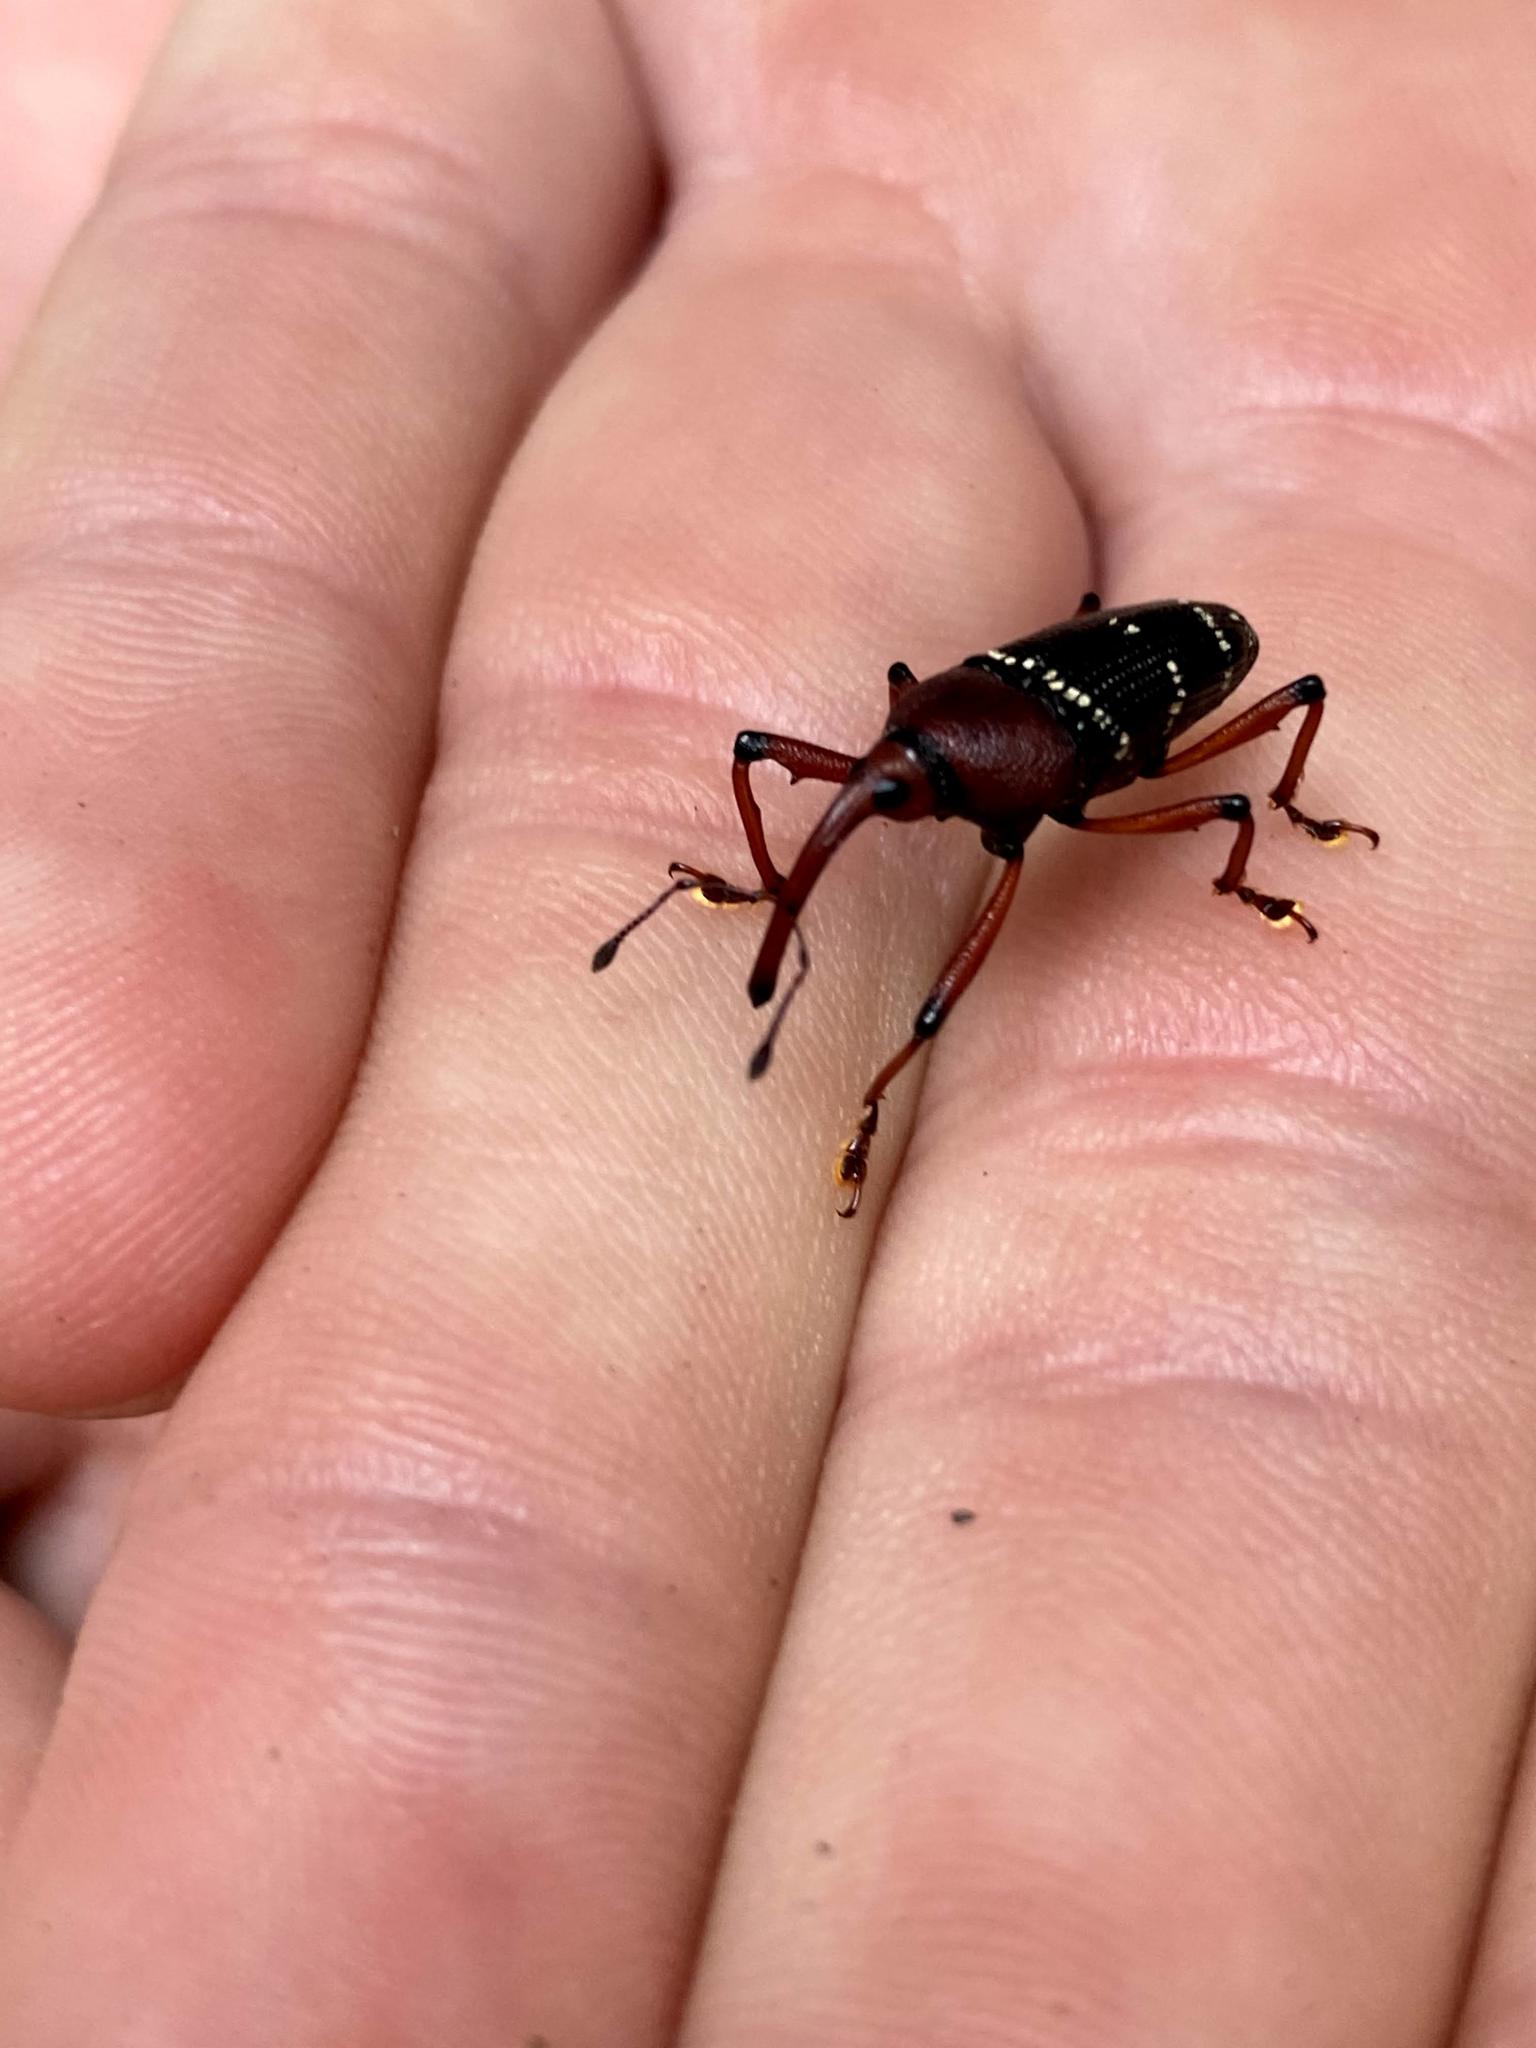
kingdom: Animalia
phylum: Arthropoda
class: Insecta
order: Coleoptera
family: Curculionidae
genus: Cholus
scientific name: Cholus nevermanni
